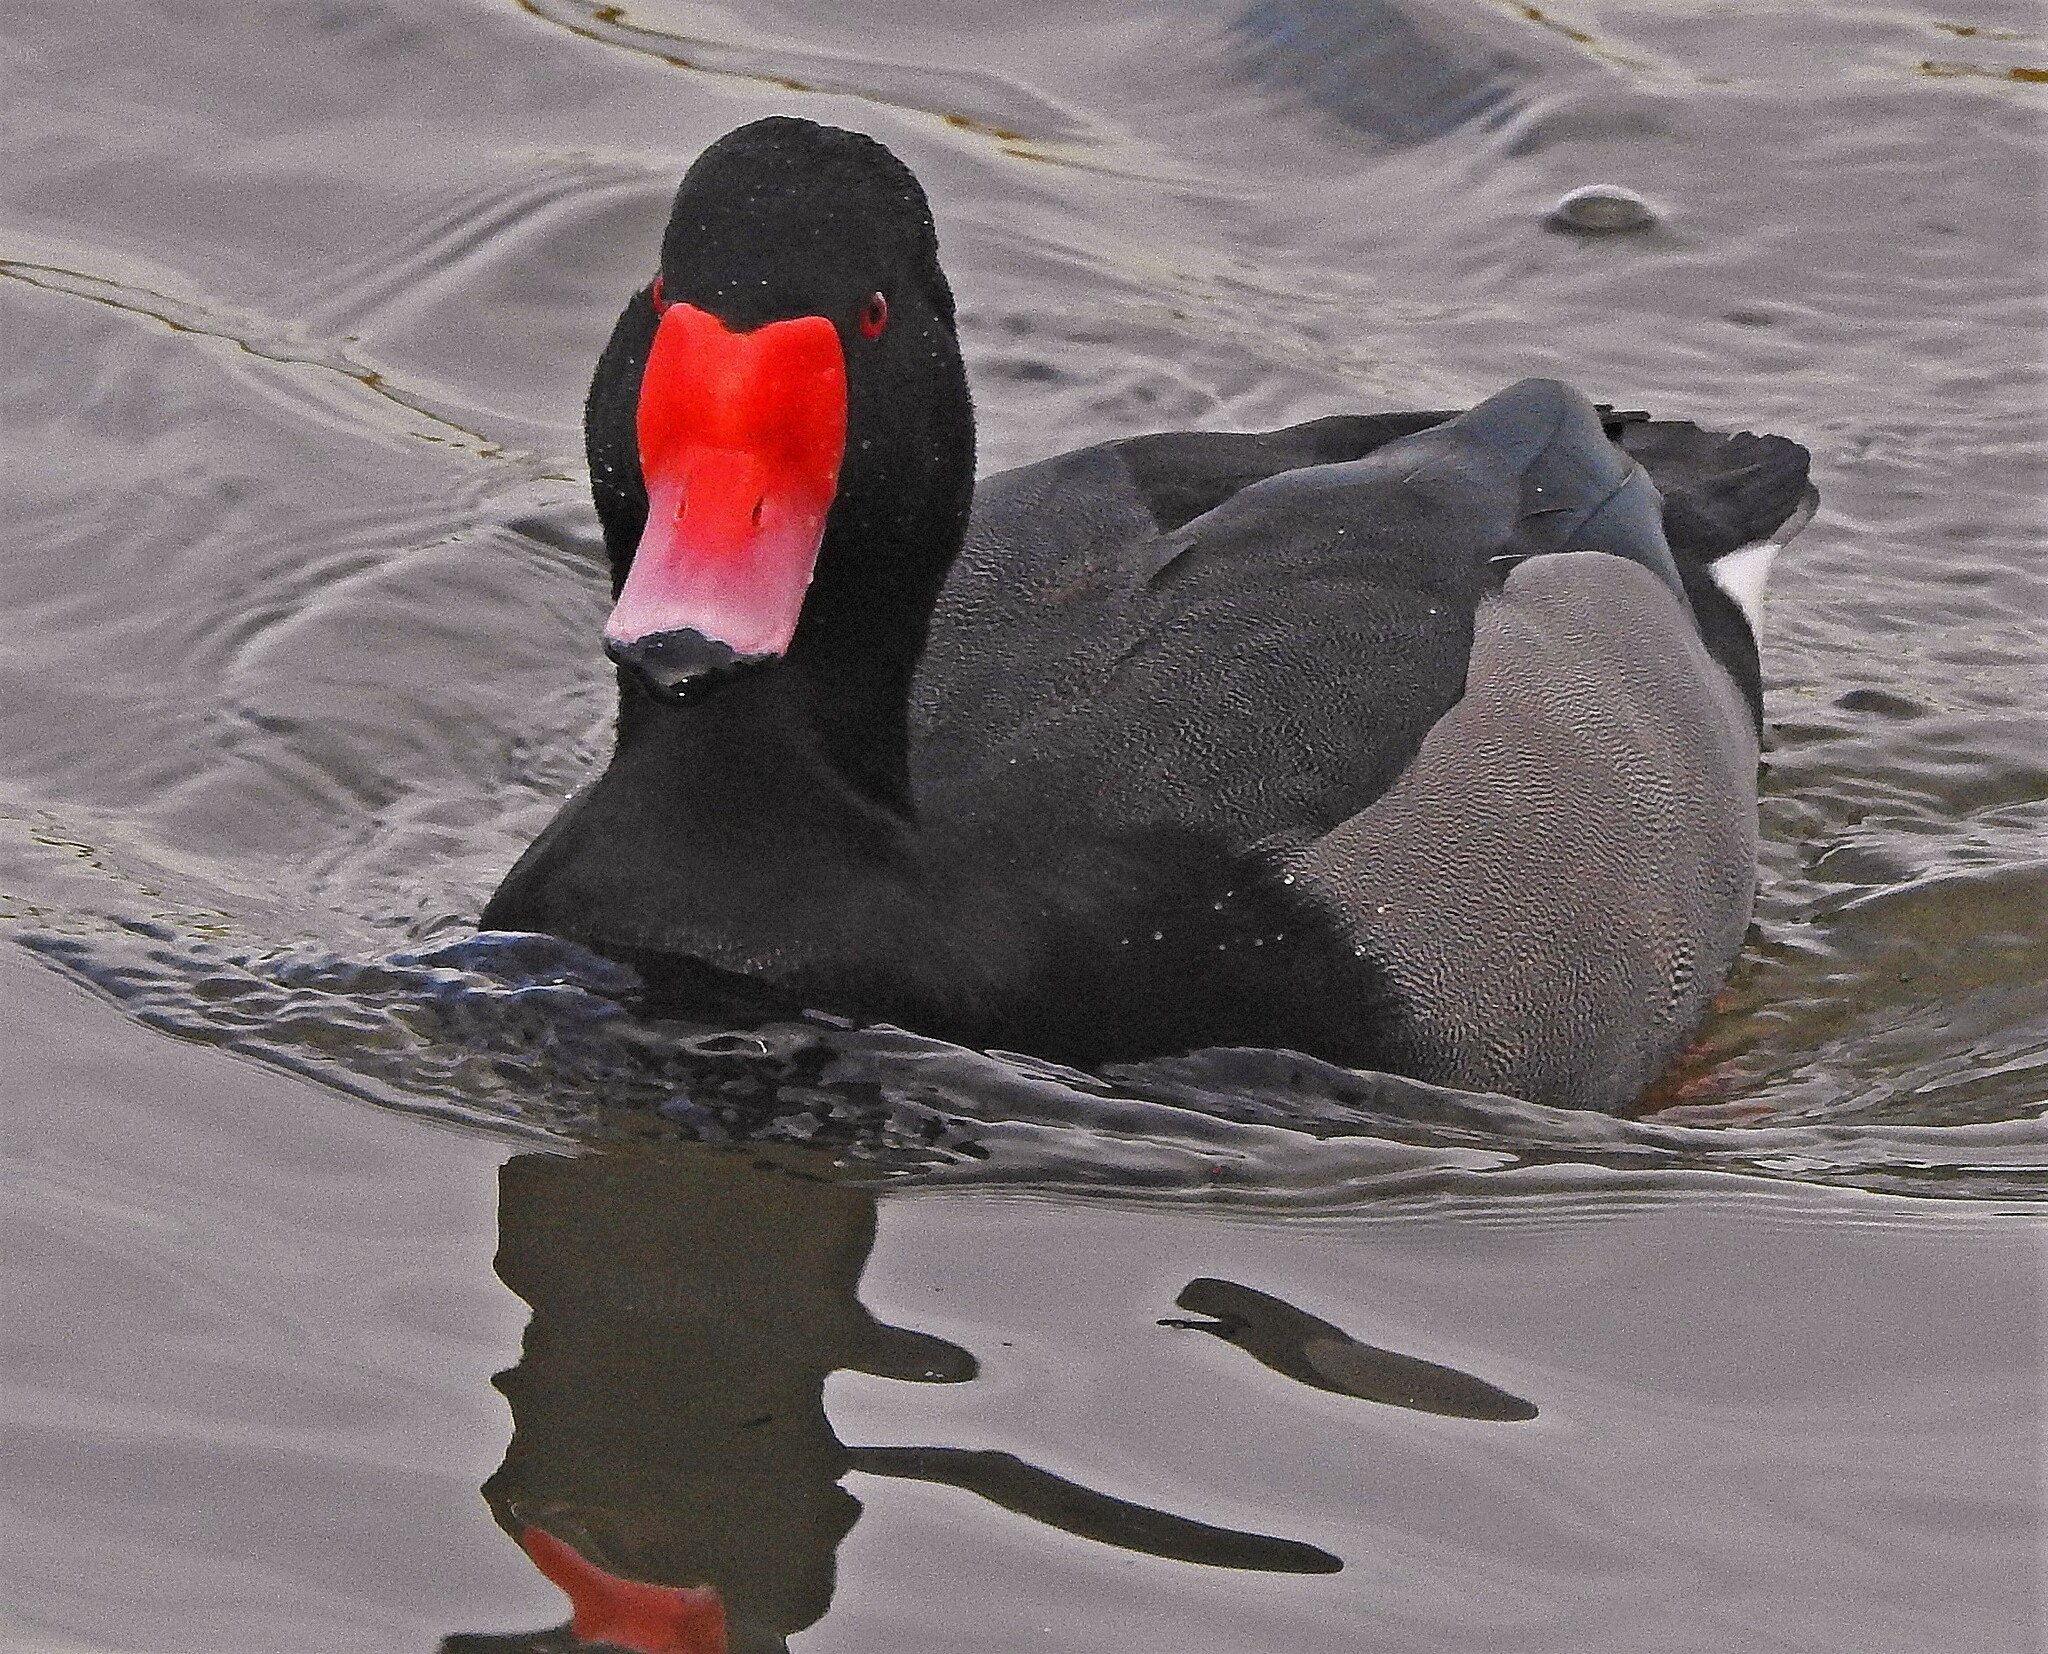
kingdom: Animalia
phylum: Chordata
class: Aves
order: Anseriformes
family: Anatidae
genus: Netta
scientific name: Netta peposaca
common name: Rosy-billed pochard
